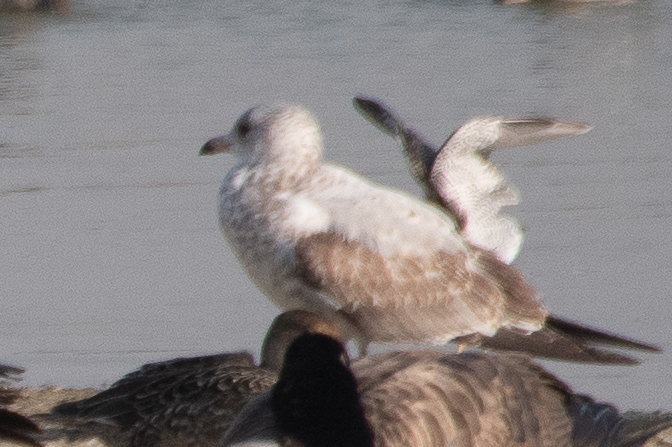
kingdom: Animalia
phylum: Chordata
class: Aves
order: Charadriiformes
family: Laridae
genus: Larus
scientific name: Larus delawarensis
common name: Ring-billed gull
